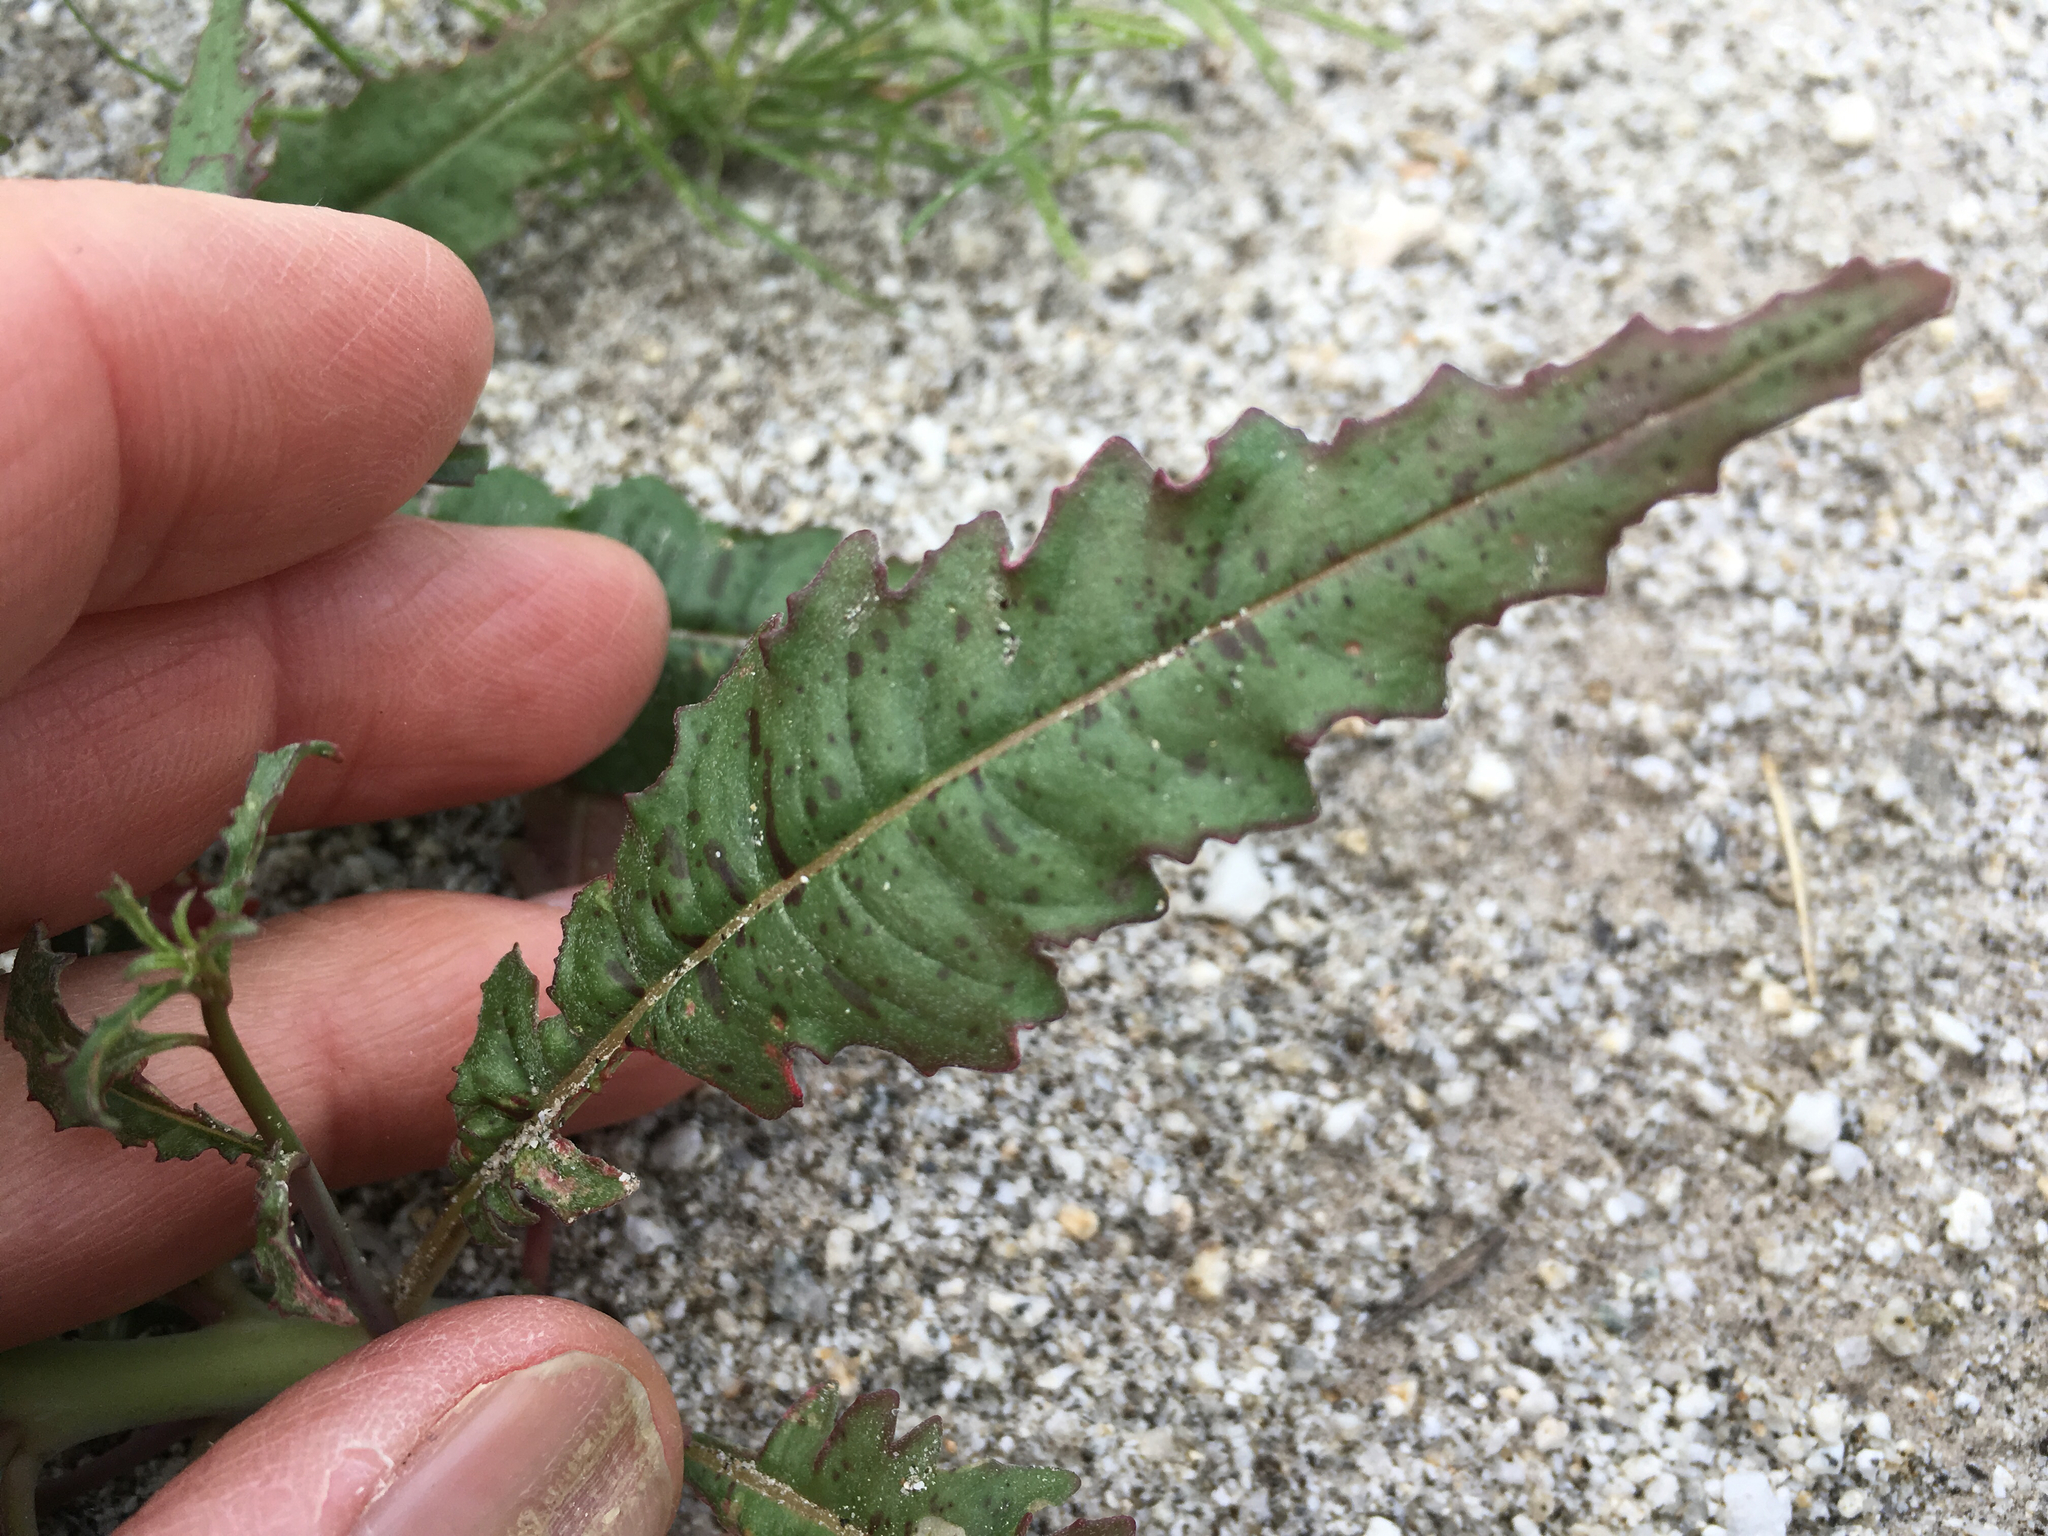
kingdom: Plantae
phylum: Tracheophyta
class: Magnoliopsida
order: Myrtales
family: Onagraceae
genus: Eulobus
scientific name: Eulobus californicus
